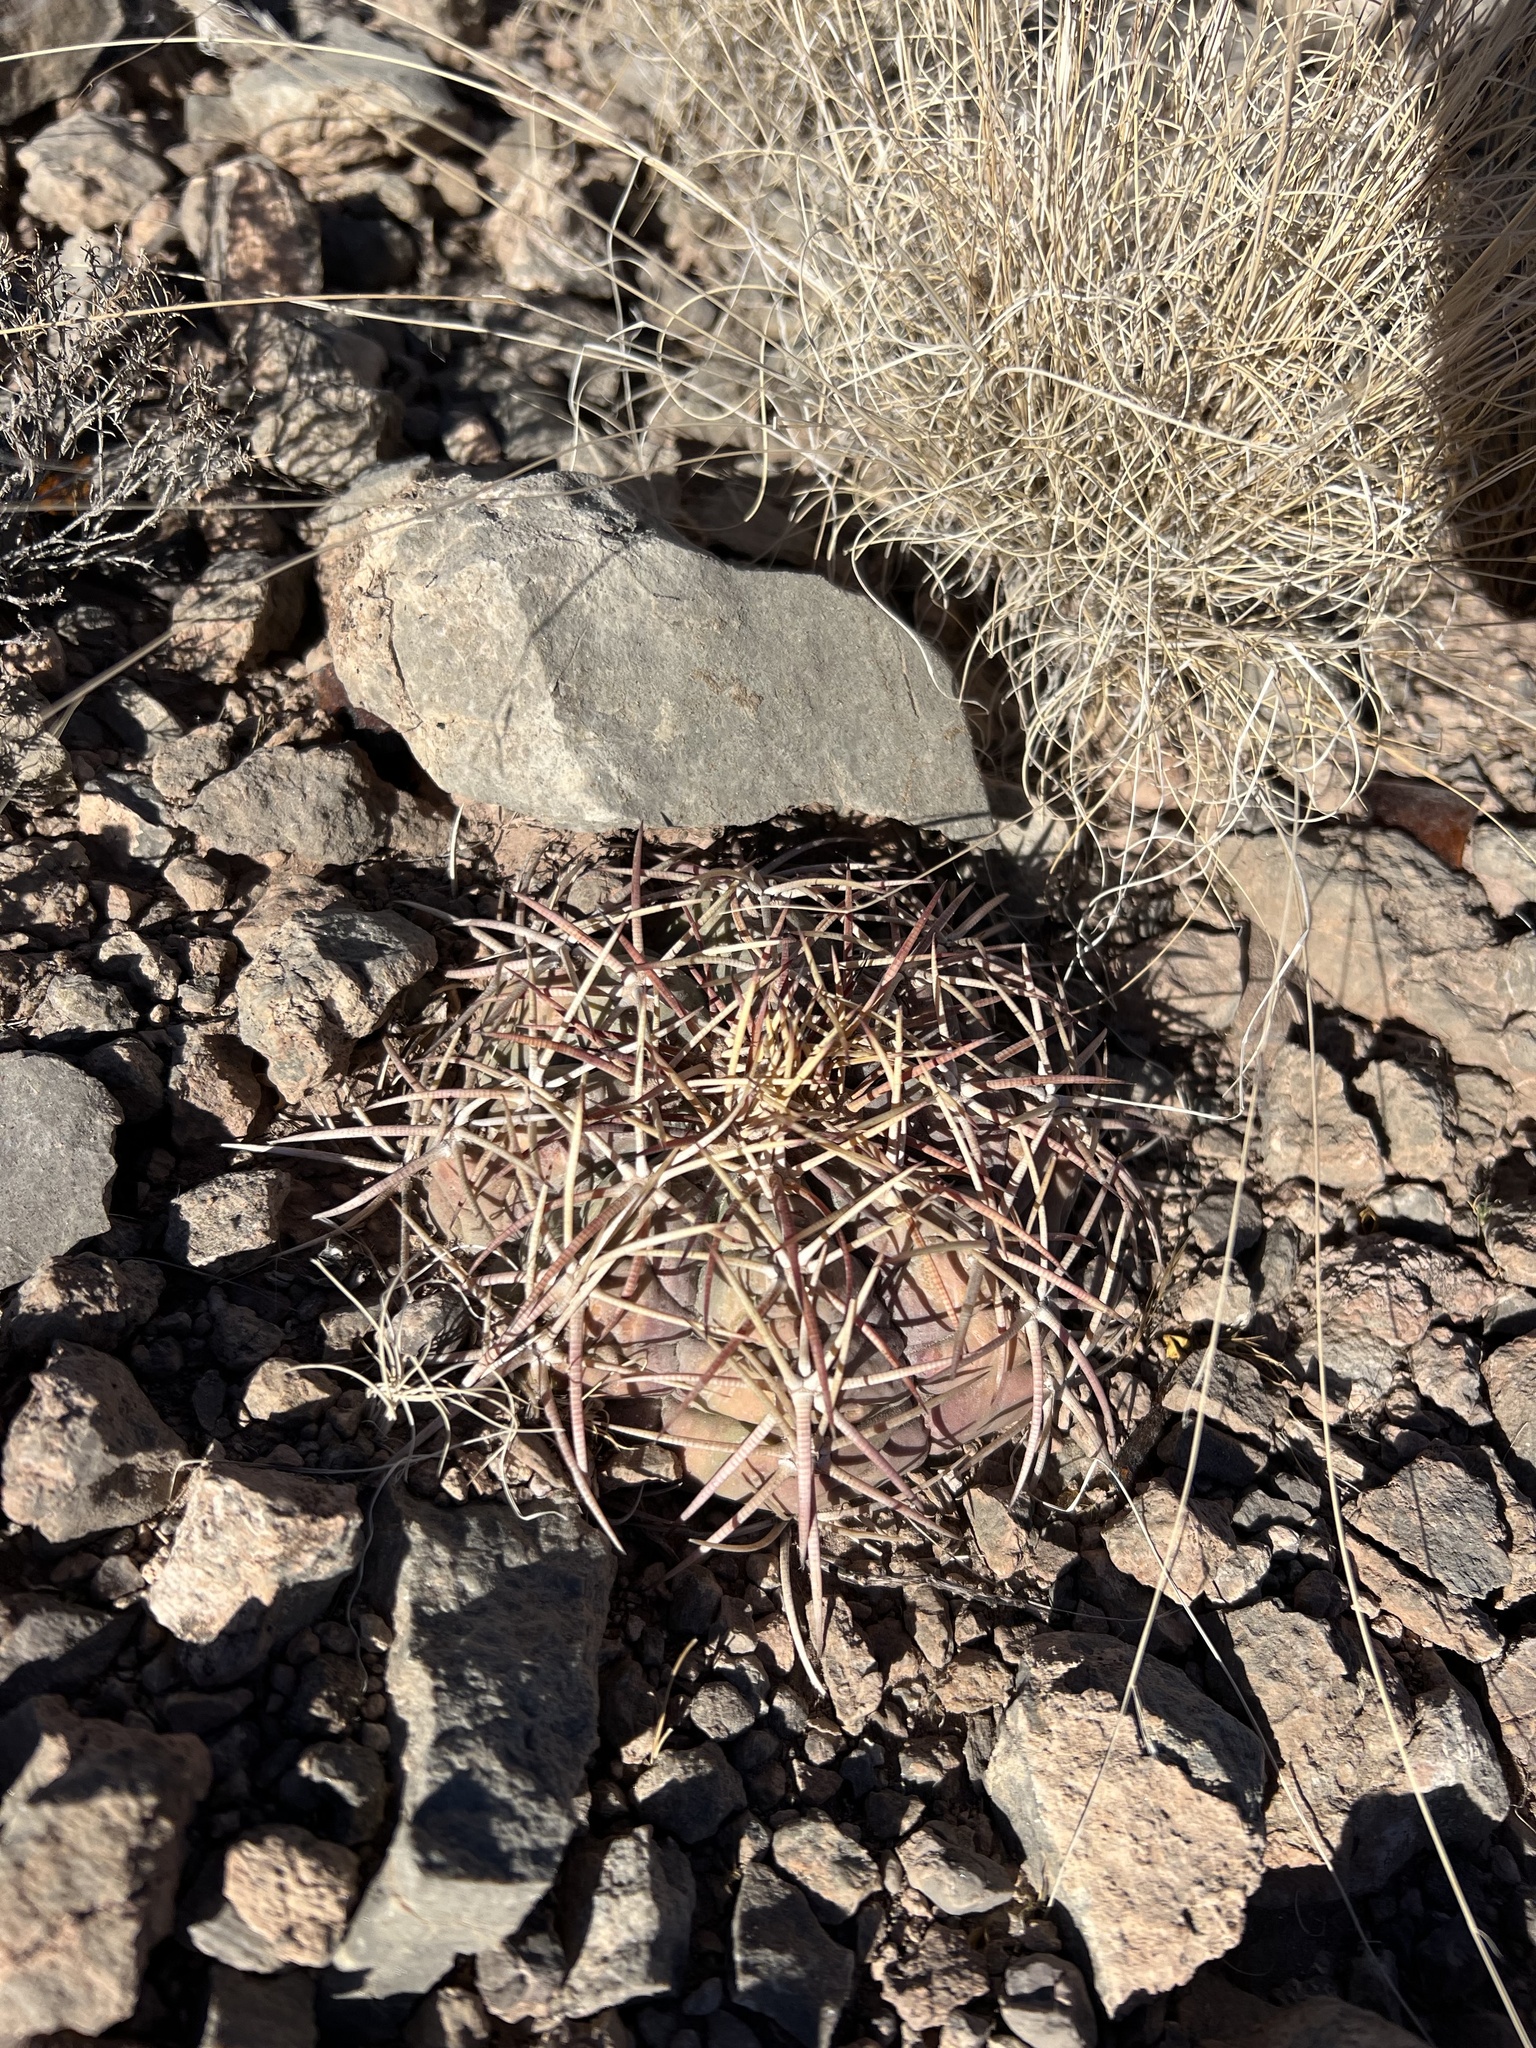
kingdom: Plantae
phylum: Tracheophyta
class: Magnoliopsida
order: Caryophyllales
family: Cactaceae
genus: Echinocactus
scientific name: Echinocactus horizonthalonius
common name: Devilshead
